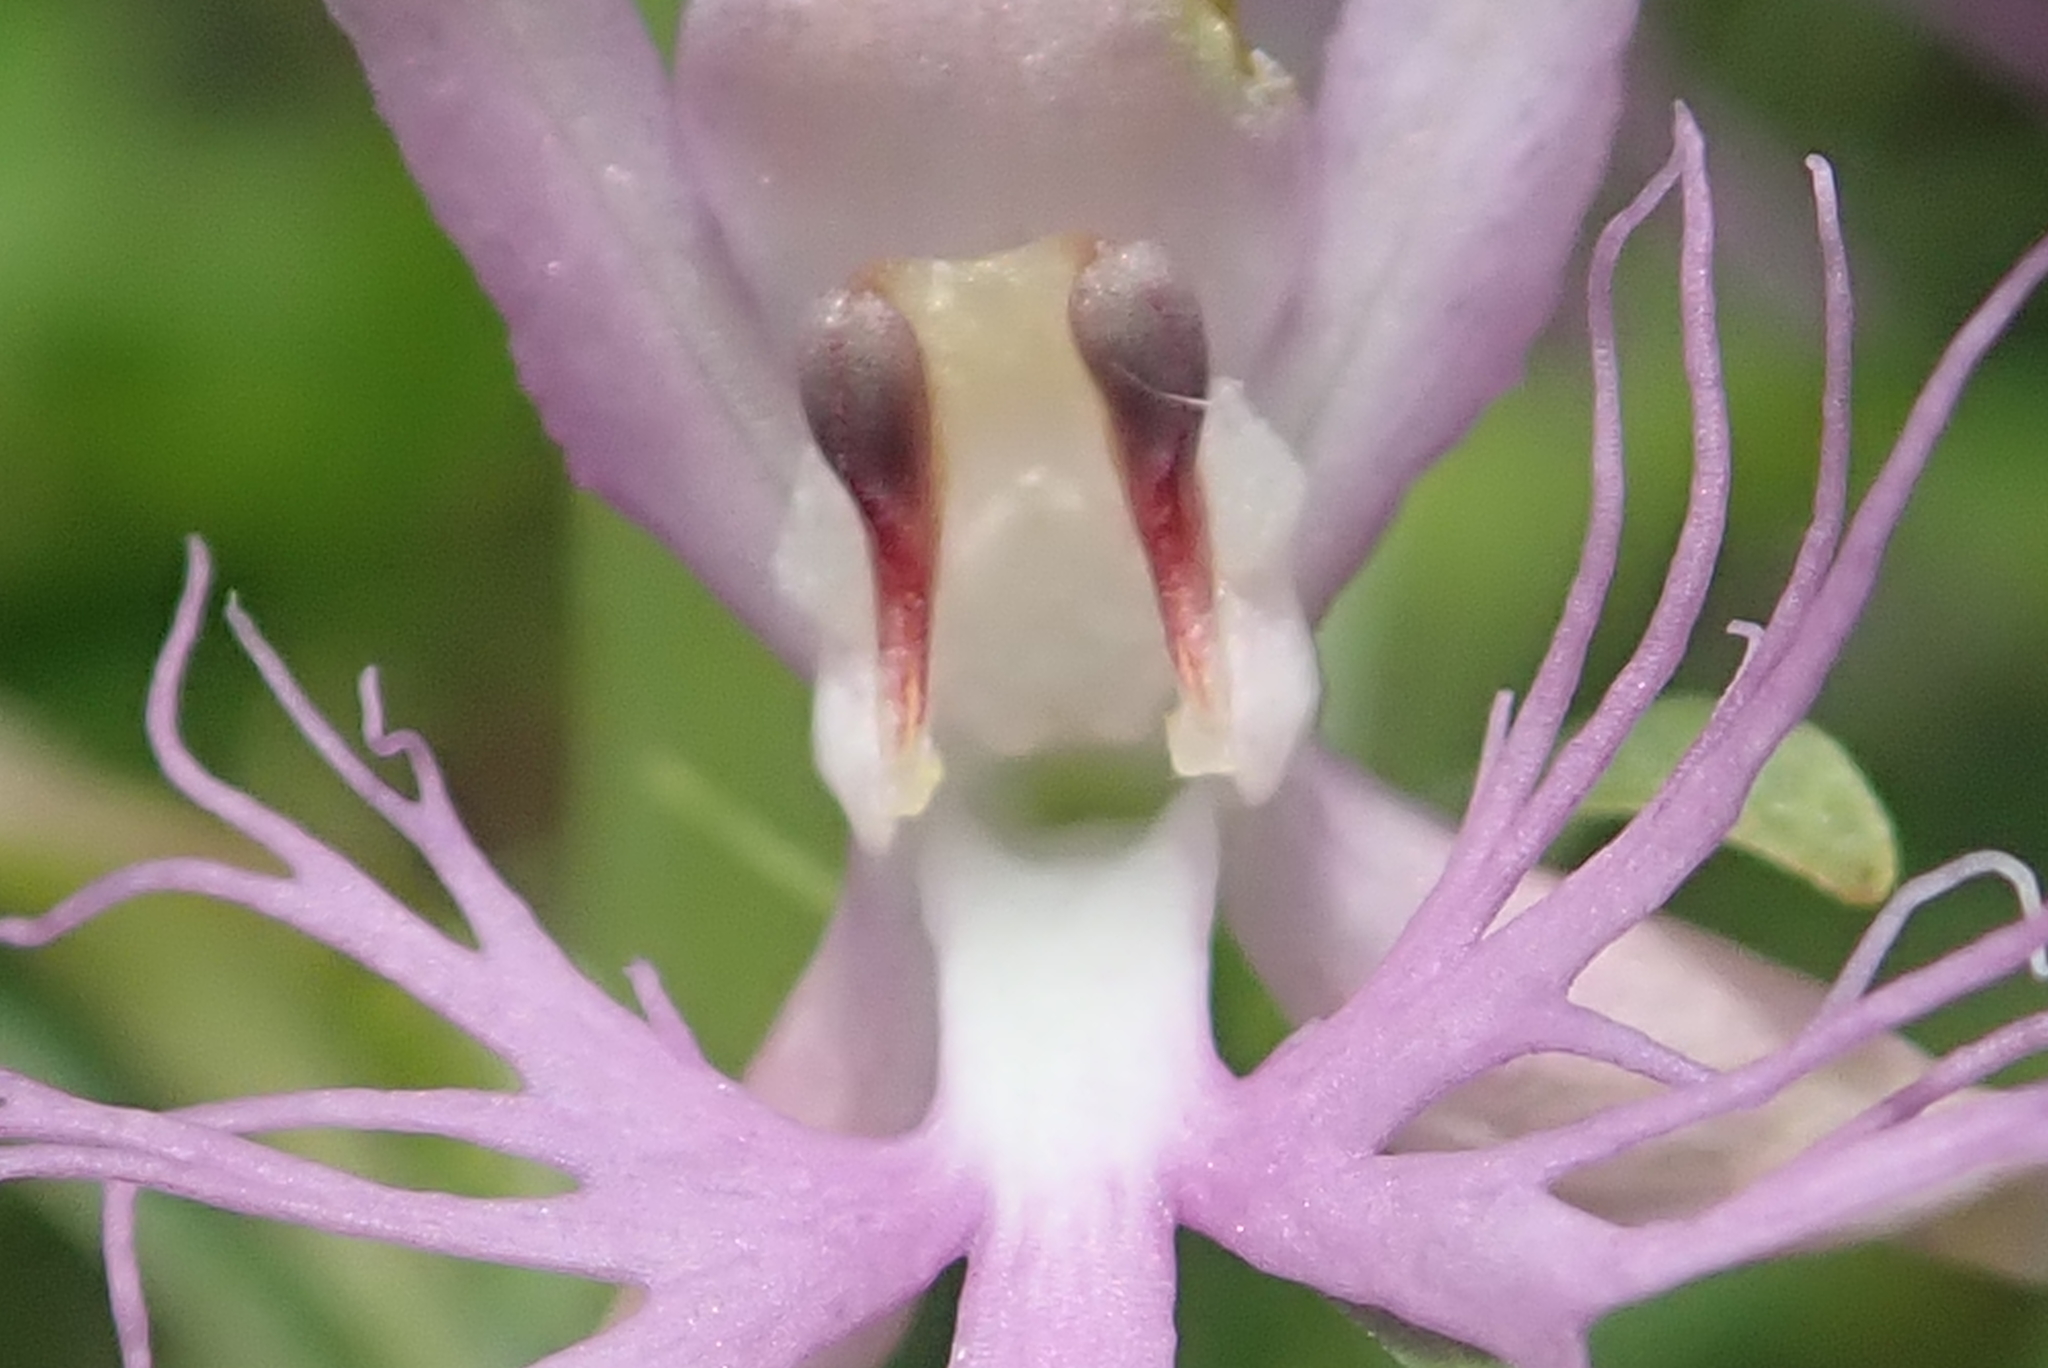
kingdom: Plantae
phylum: Tracheophyta
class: Liliopsida
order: Asparagales
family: Orchidaceae
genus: Platanthera
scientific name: Platanthera keenanii
